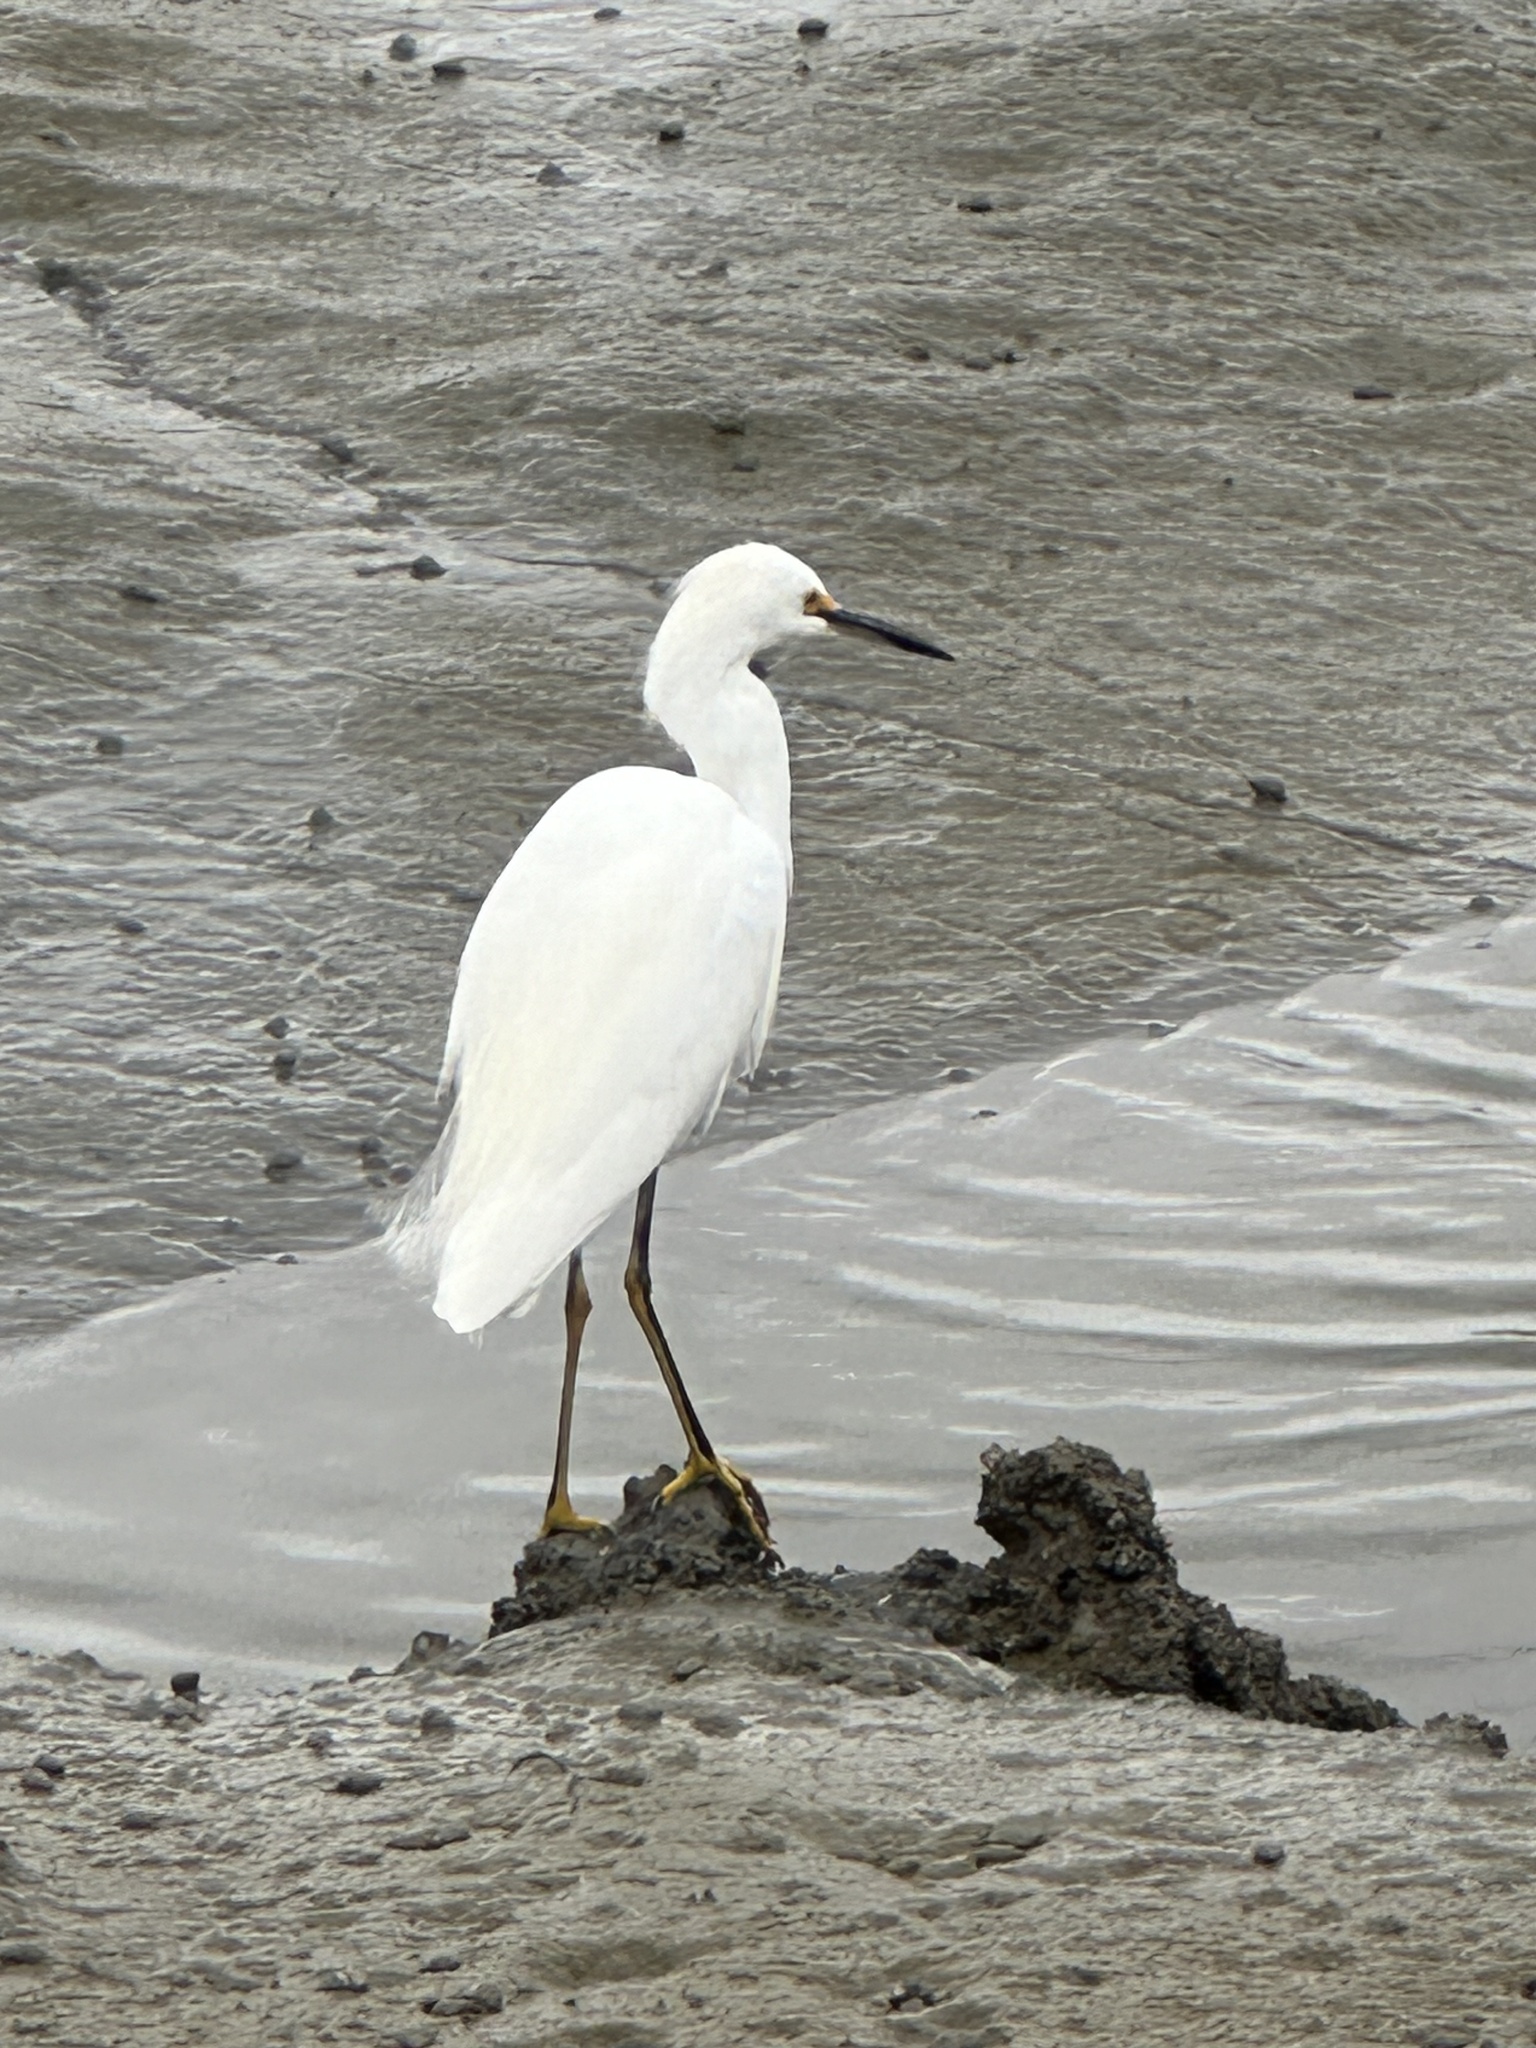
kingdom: Animalia
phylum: Chordata
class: Aves
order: Pelecaniformes
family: Ardeidae
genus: Egretta
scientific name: Egretta thula
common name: Snowy egret
